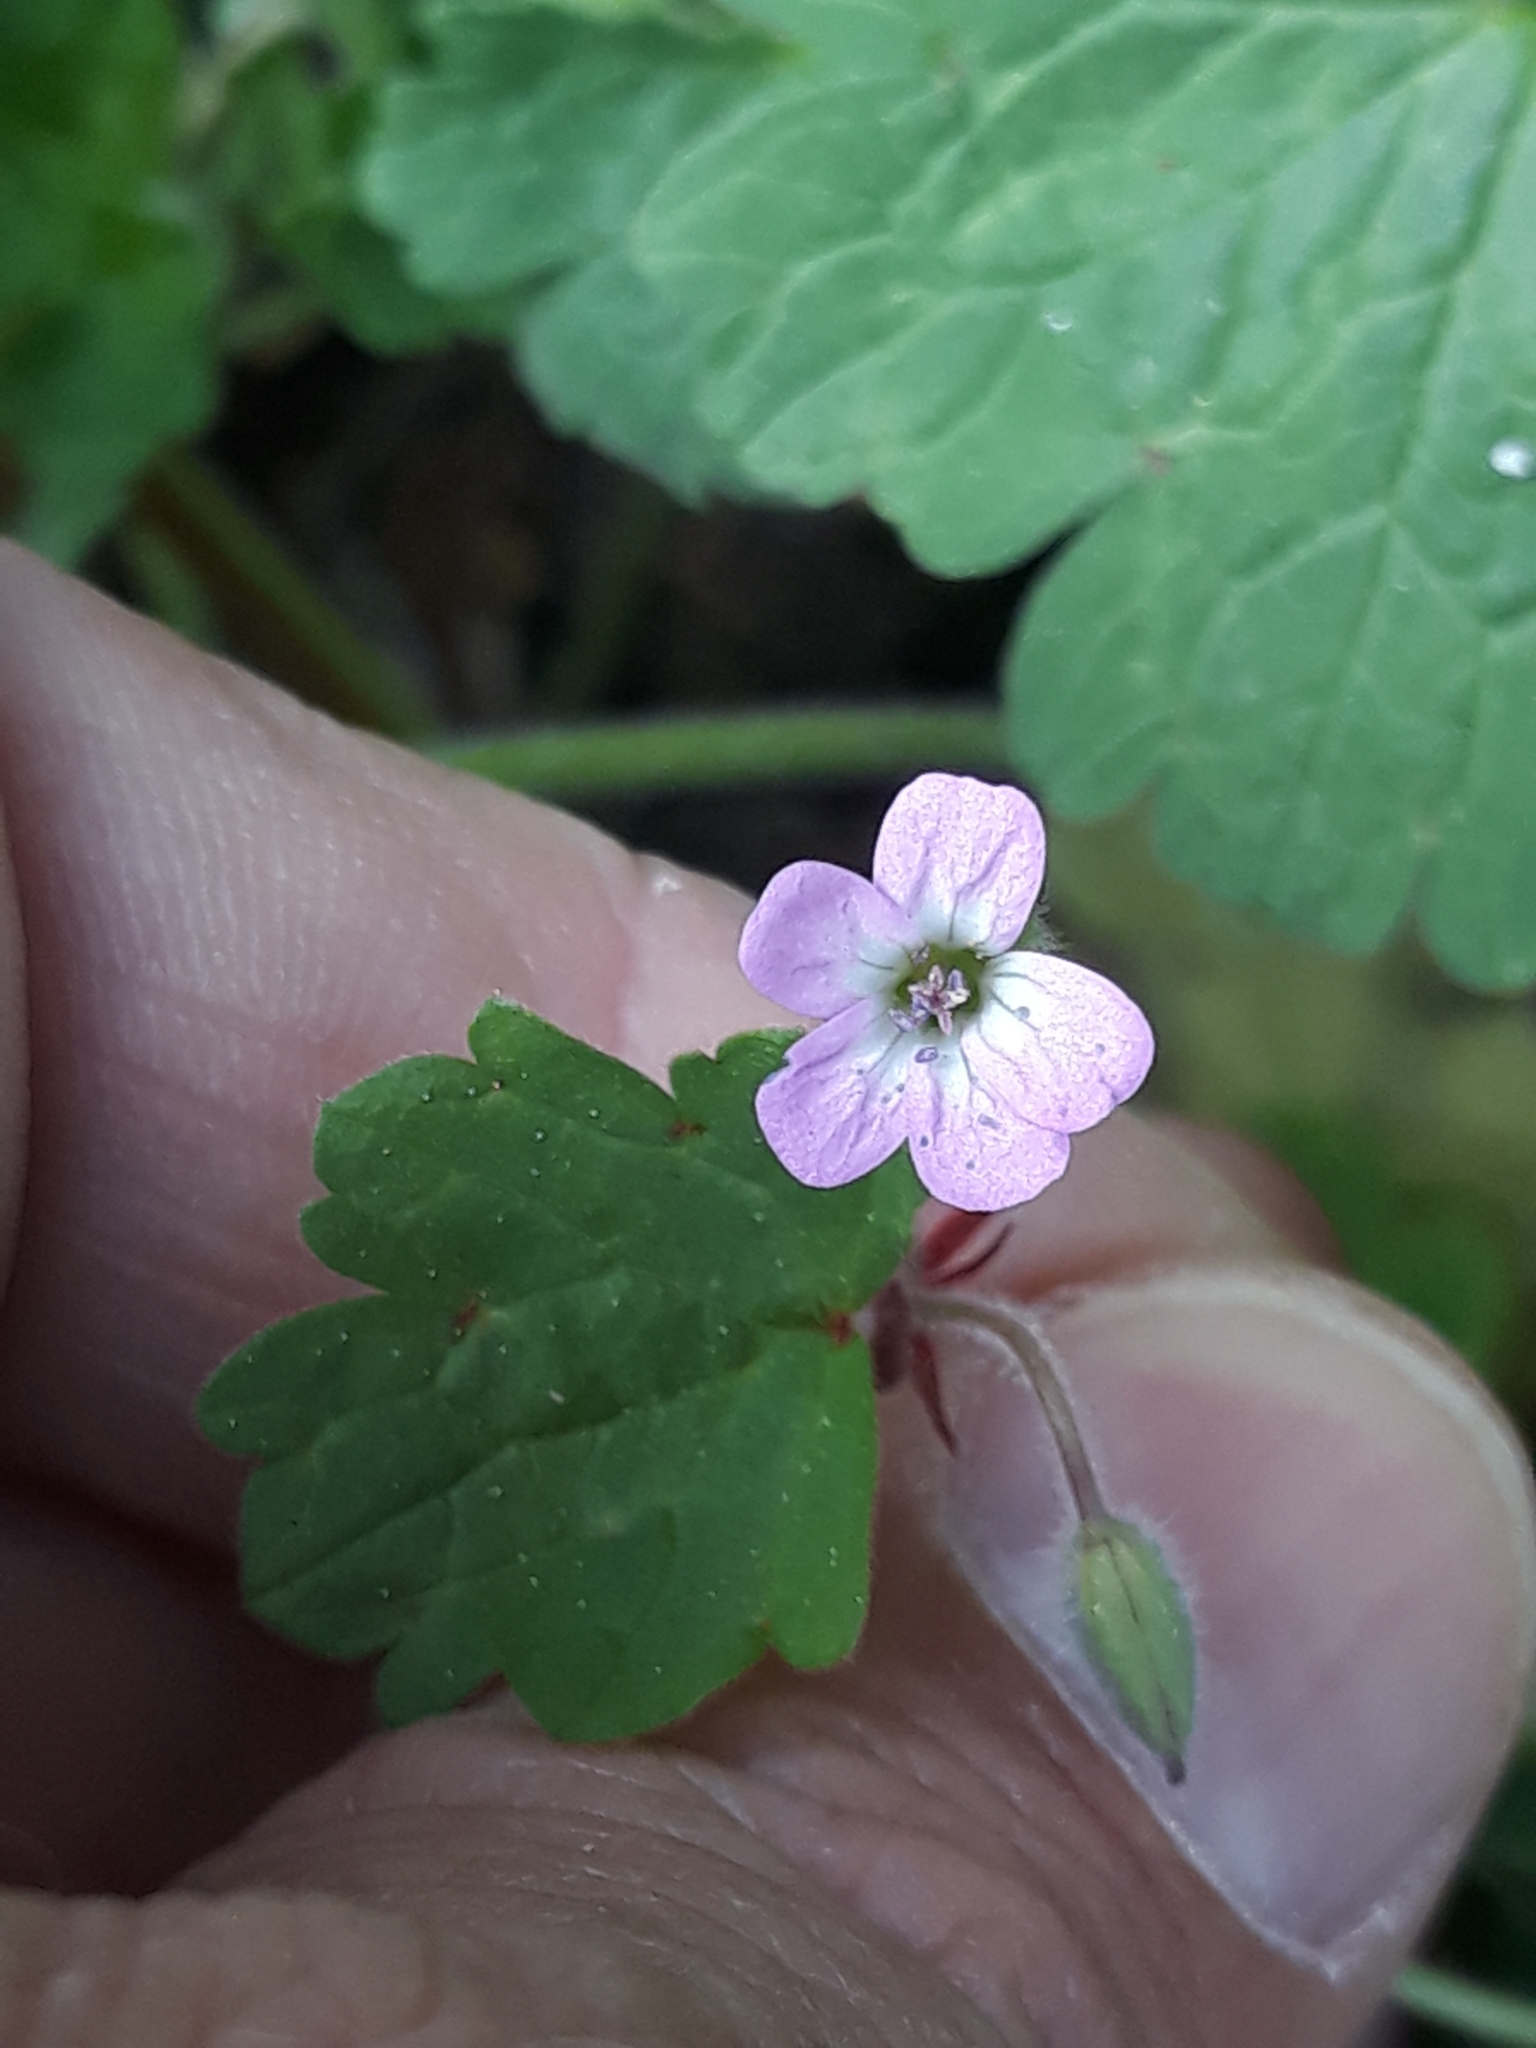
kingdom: Plantae
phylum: Tracheophyta
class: Magnoliopsida
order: Geraniales
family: Geraniaceae
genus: Geranium
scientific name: Geranium rotundifolium
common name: Round-leaved crane's-bill
